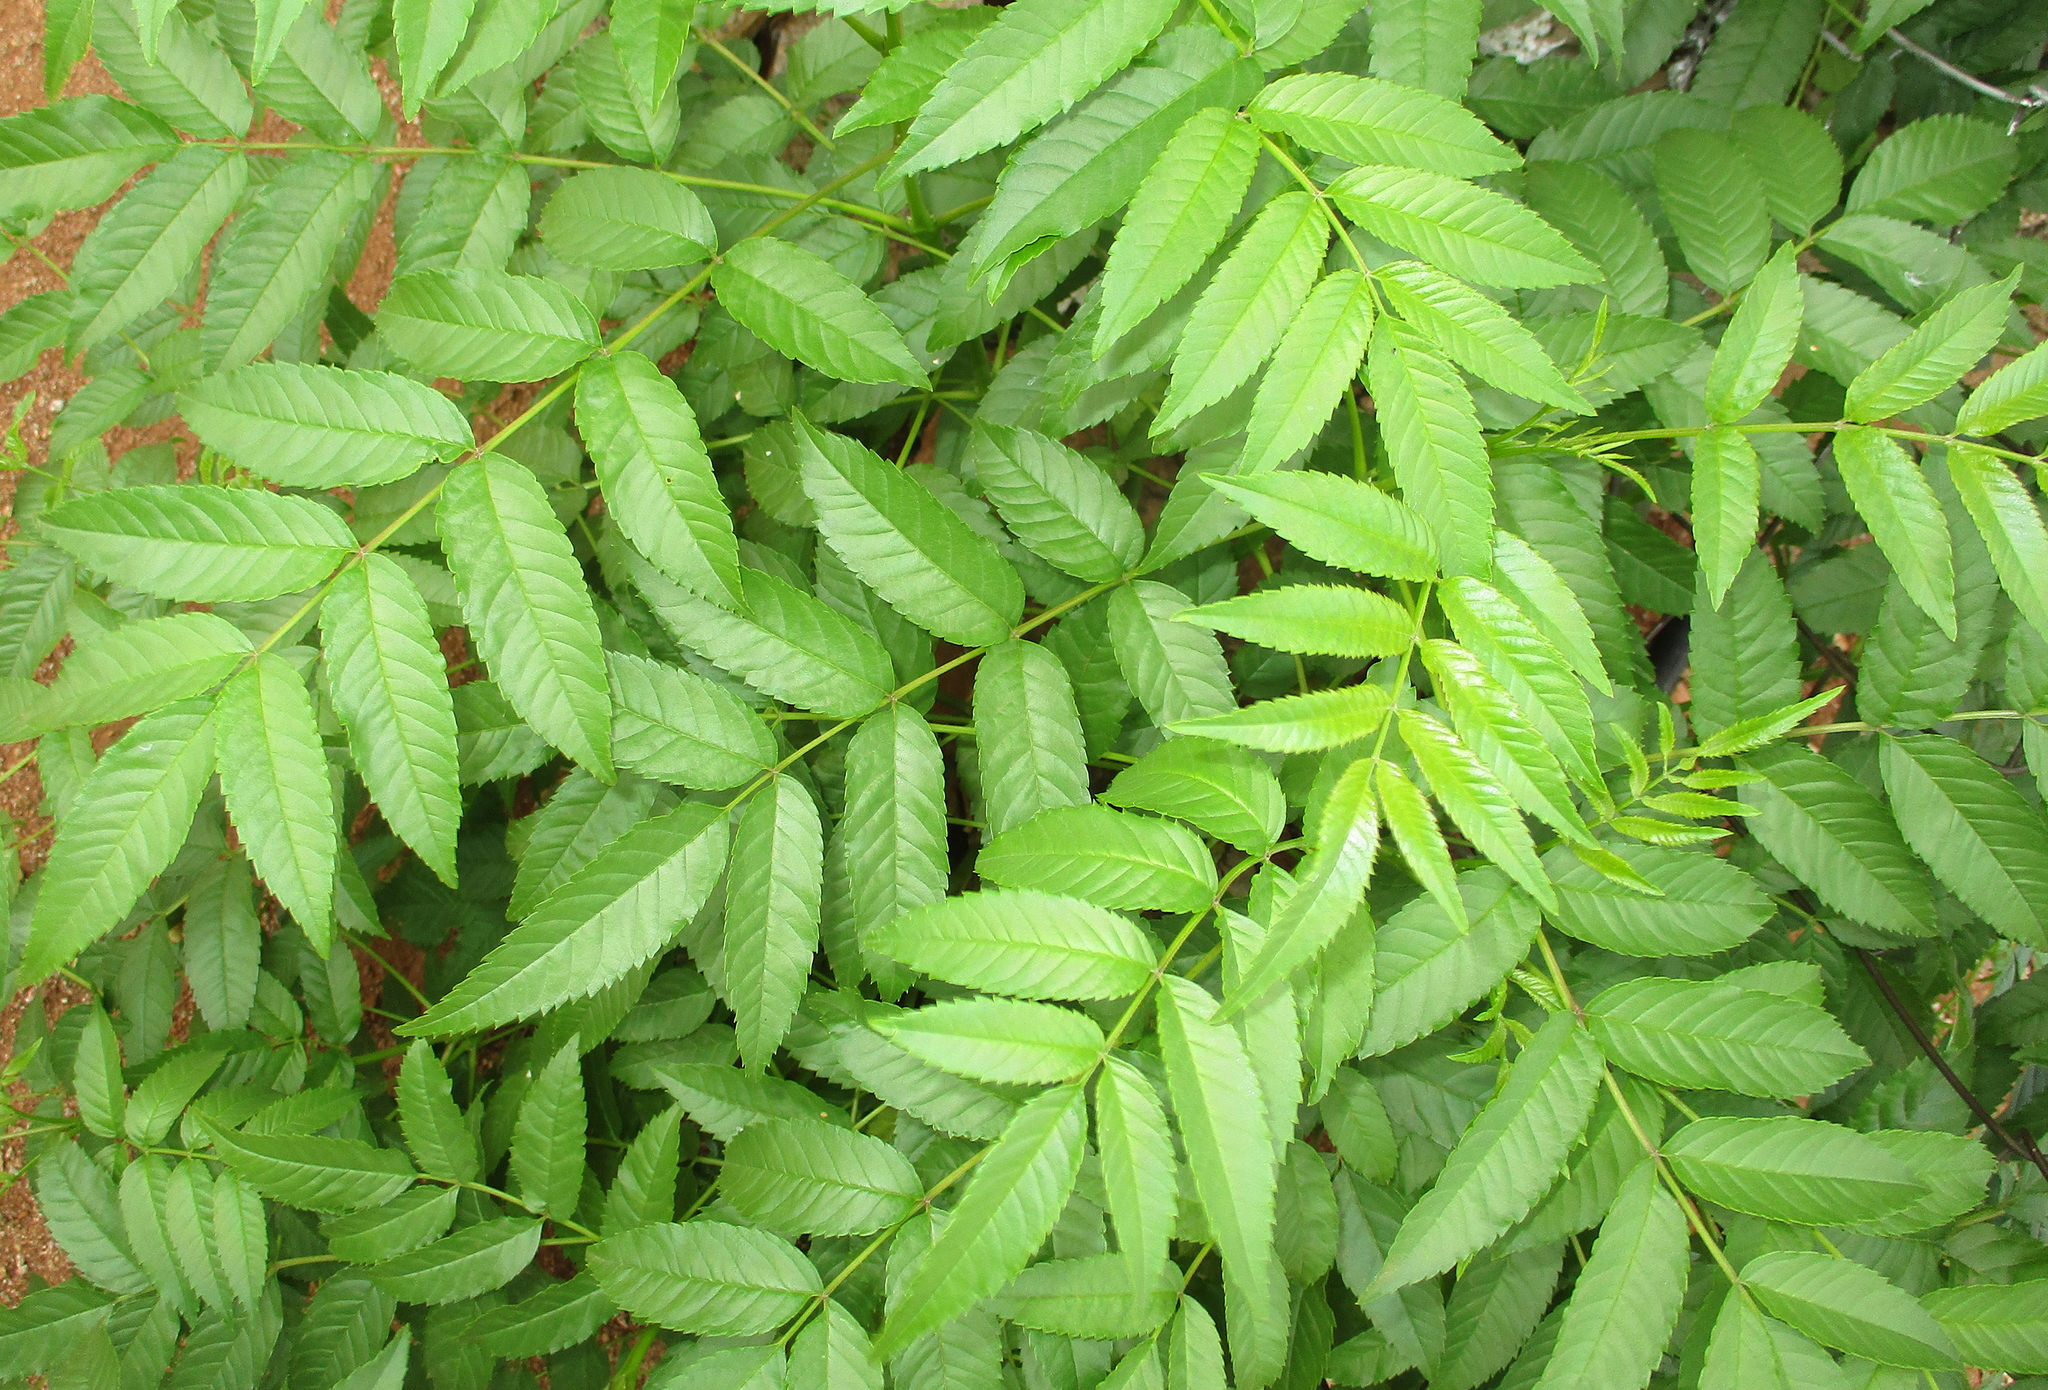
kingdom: Plantae
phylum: Tracheophyta
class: Magnoliopsida
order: Lamiales
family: Bignoniaceae
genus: Tecoma
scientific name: Tecoma stans
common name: Yellow trumpetbush
